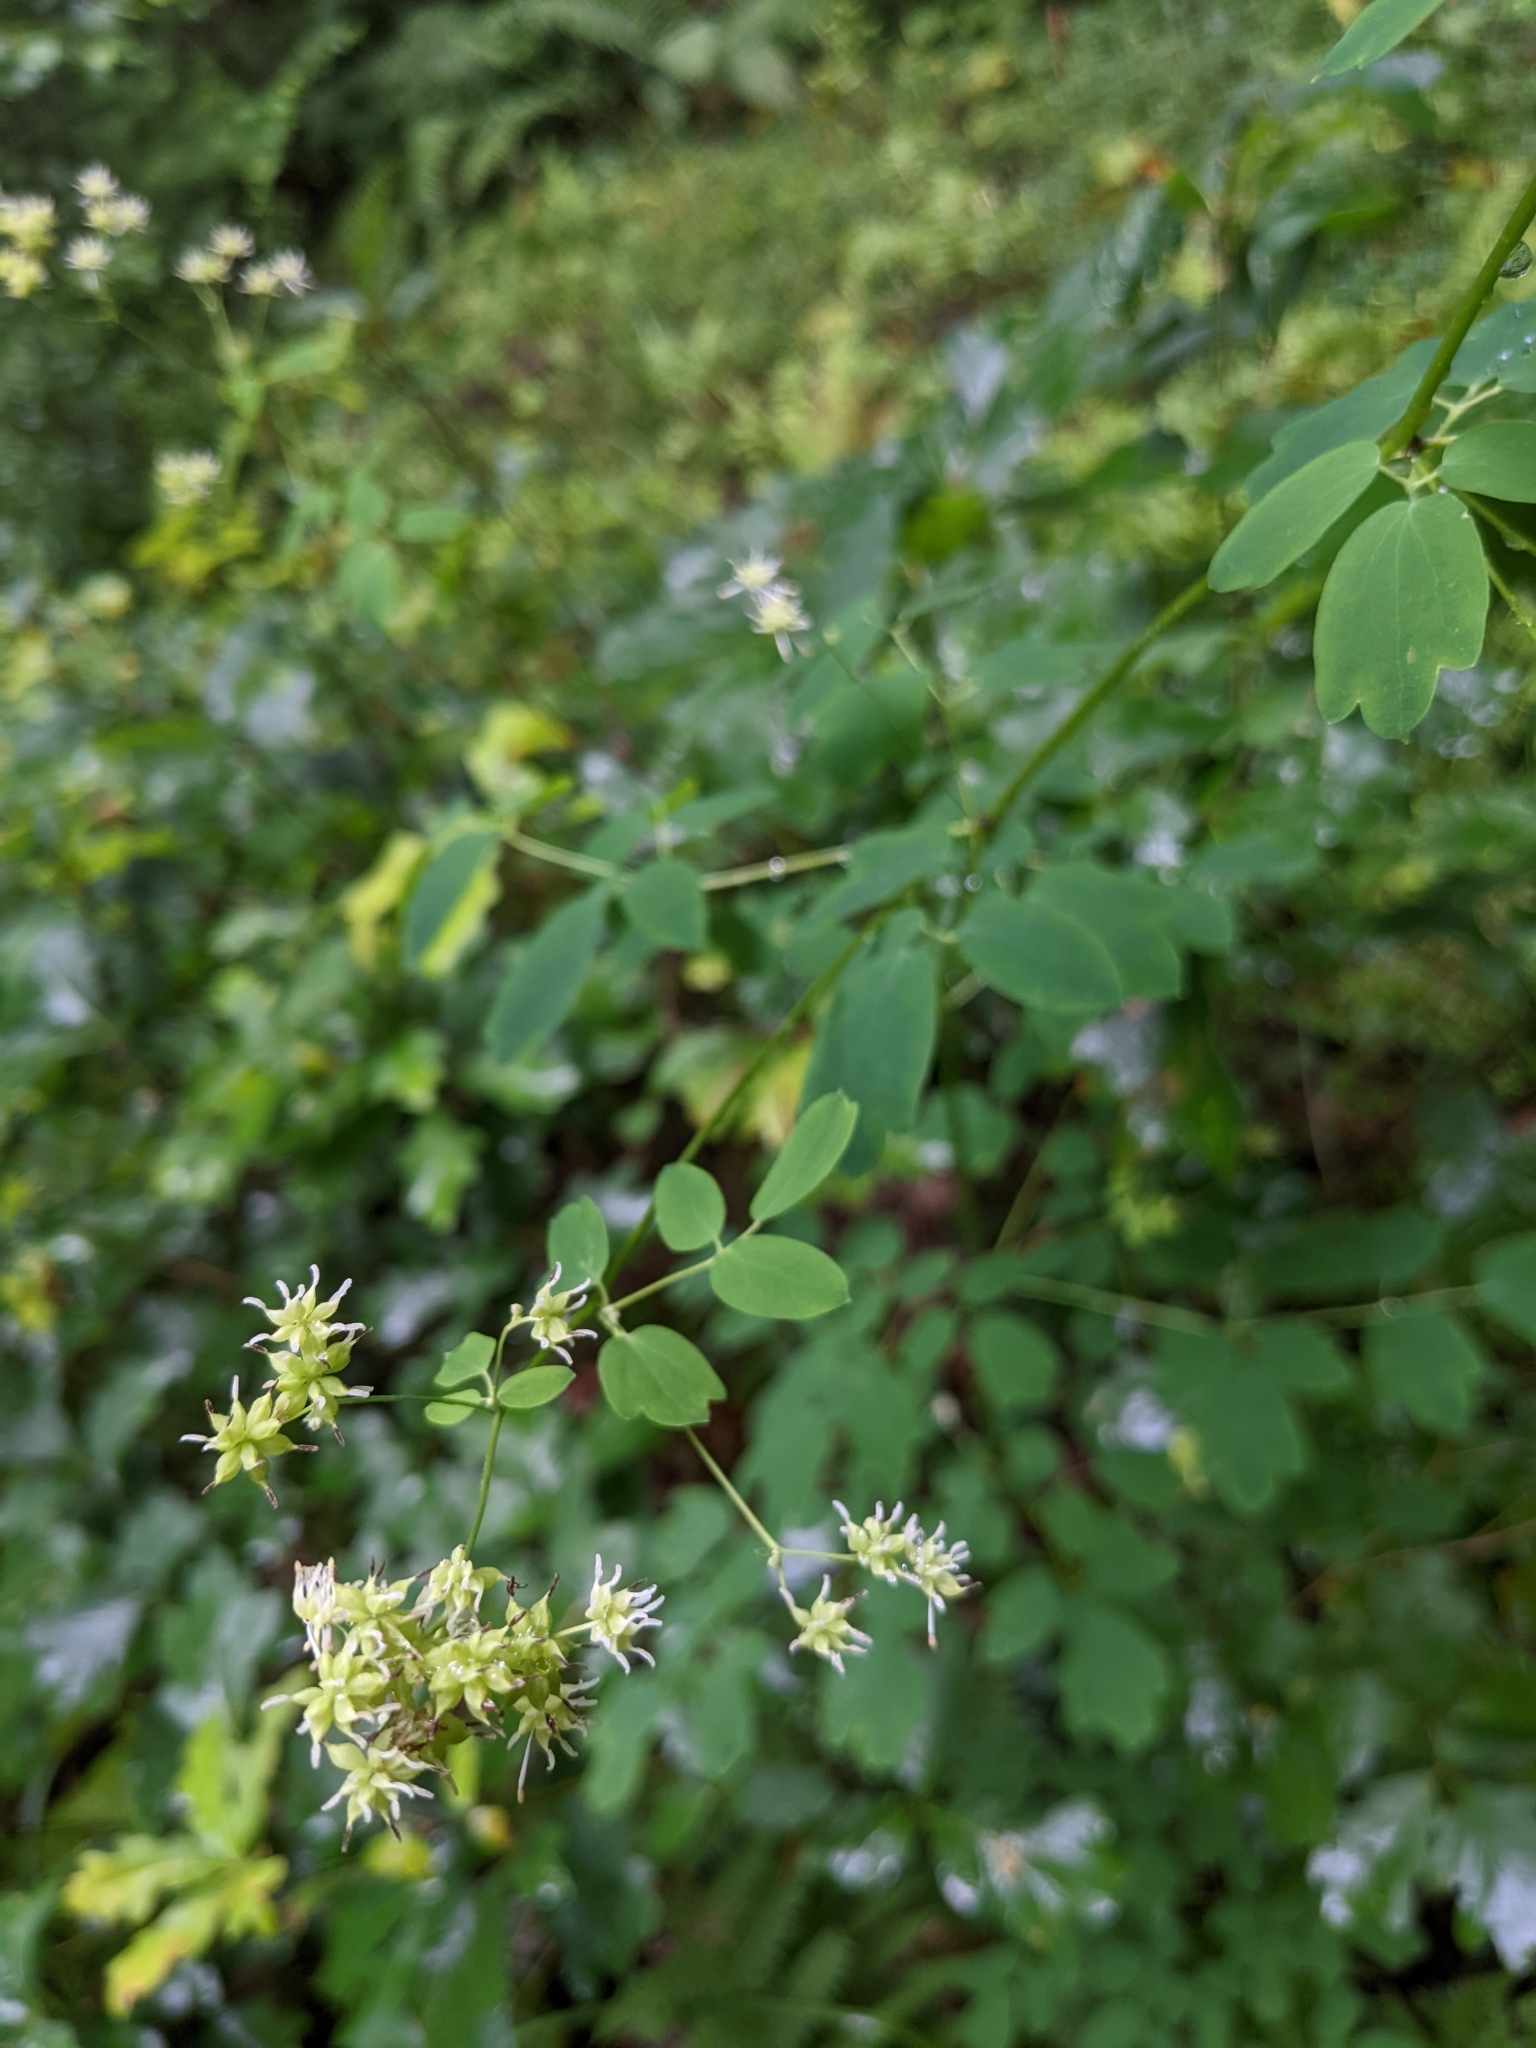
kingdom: Plantae
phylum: Tracheophyta
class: Magnoliopsida
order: Ranunculales
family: Ranunculaceae
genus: Thalictrum
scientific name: Thalictrum pubescens
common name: King-of-the-meadow
